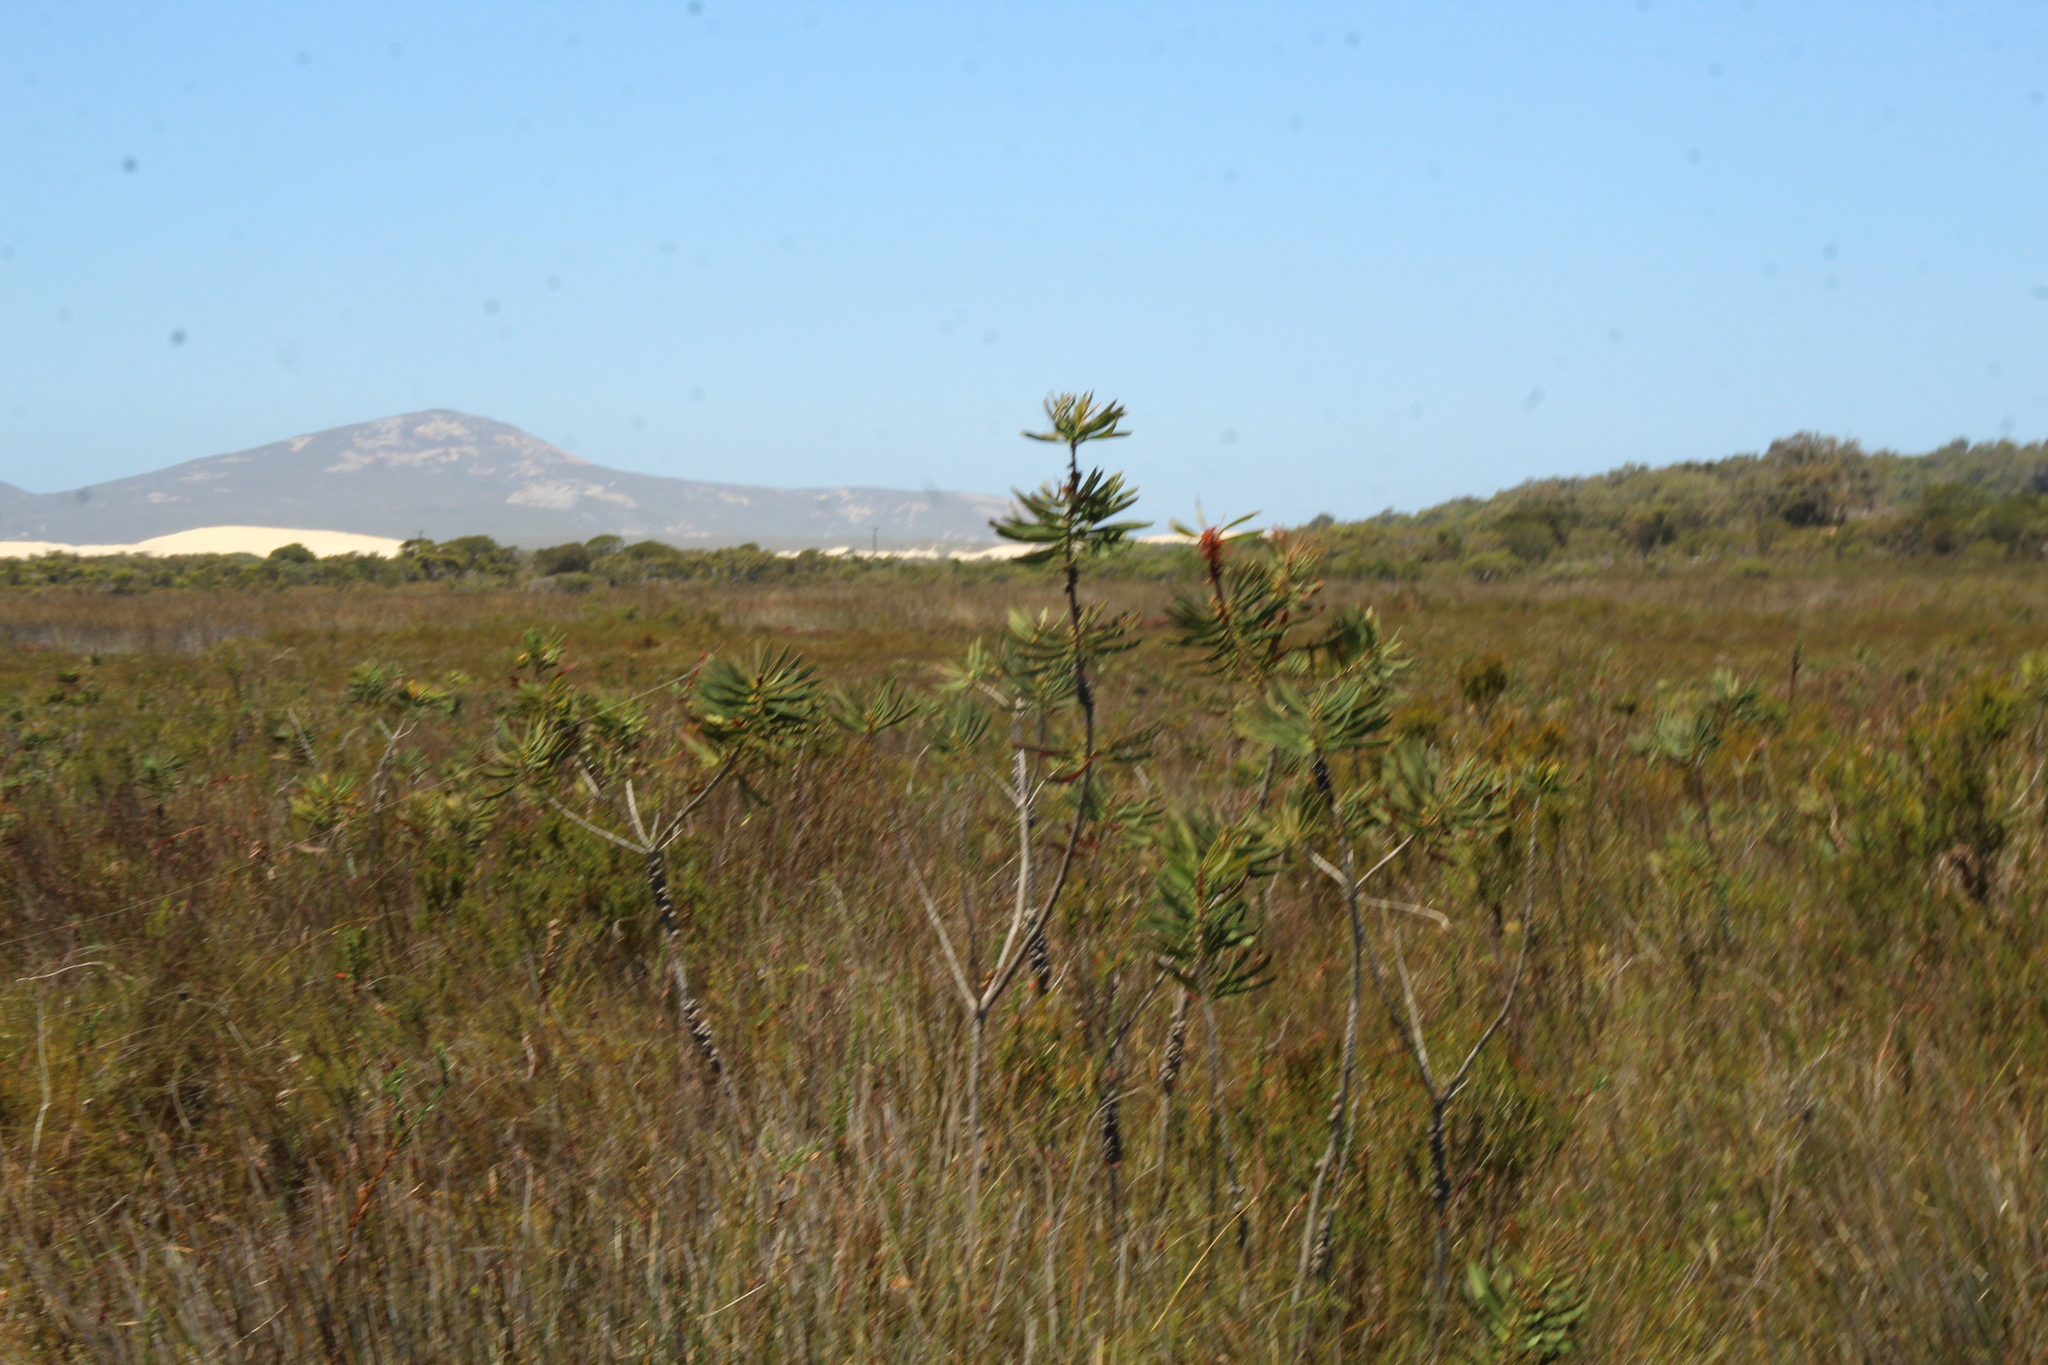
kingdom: Plantae
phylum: Tracheophyta
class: Magnoliopsida
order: Myrtales
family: Myrtaceae
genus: Melaleuca
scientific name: Melaleuca glauca
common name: Albany-bottlebrush
